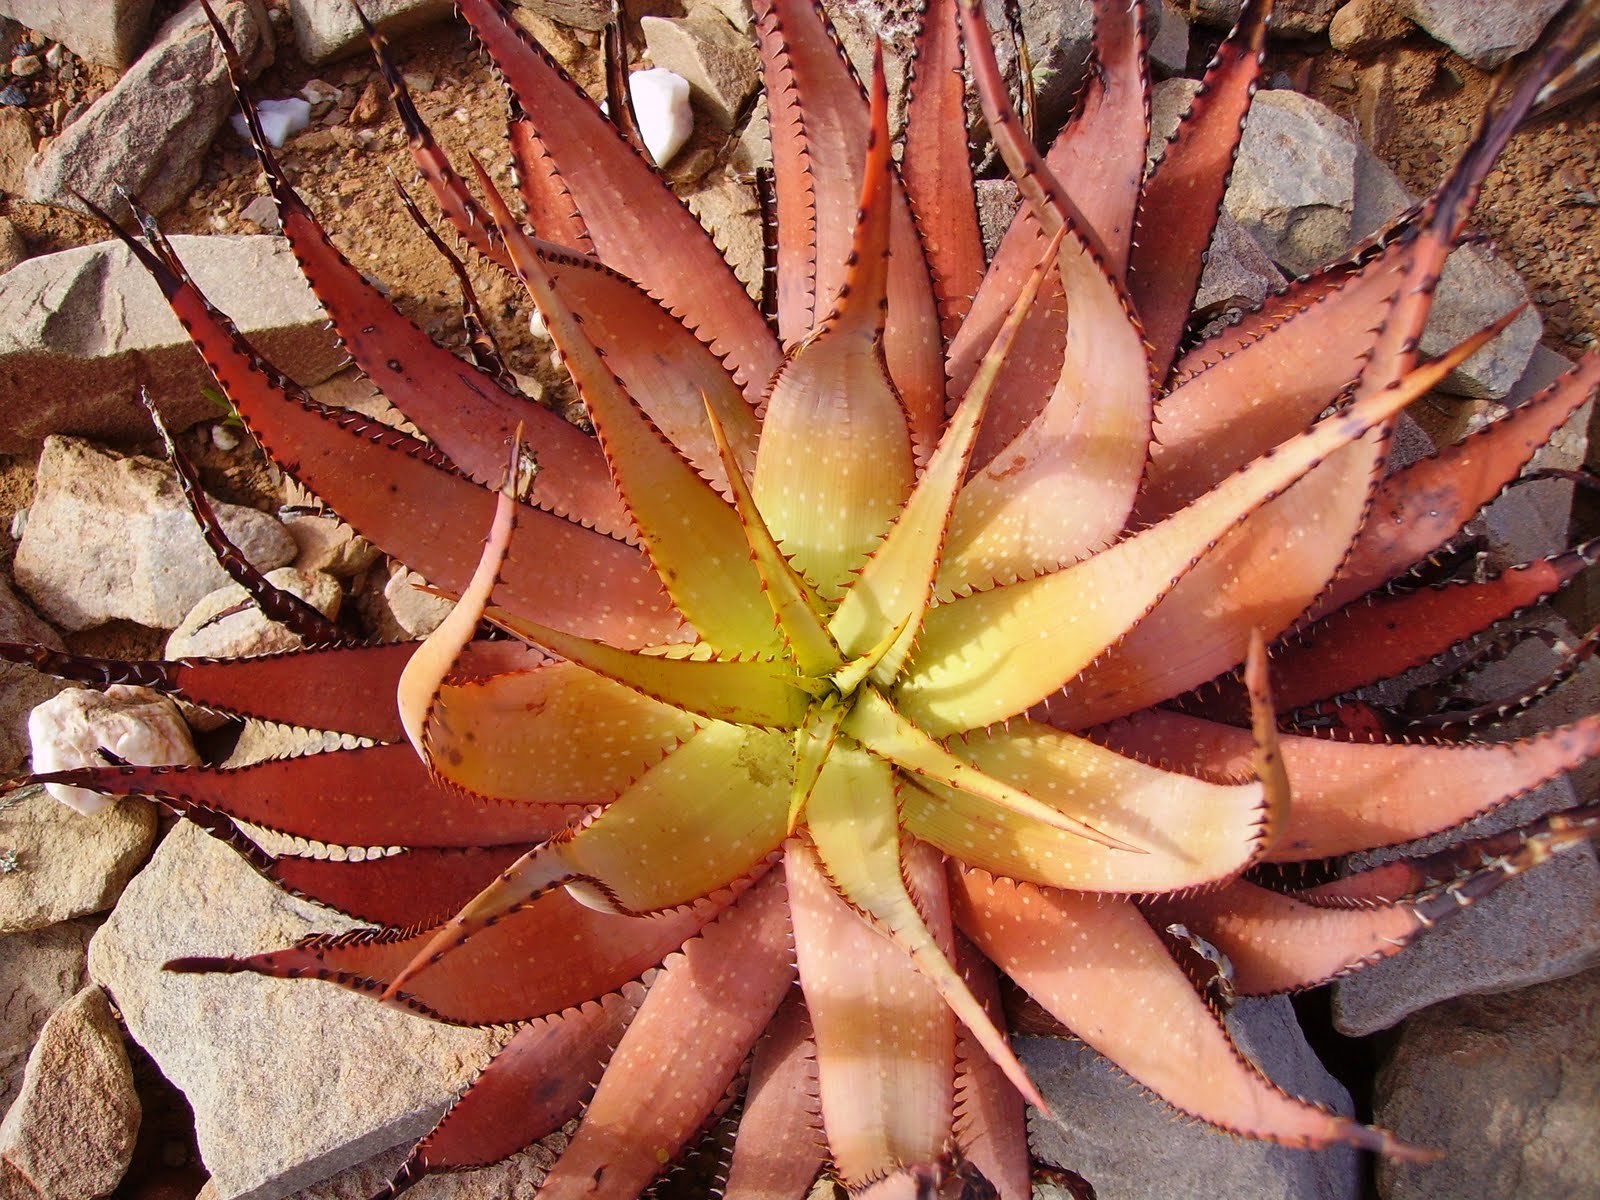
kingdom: Plantae
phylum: Tracheophyta
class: Liliopsida
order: Asparagales
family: Asphodelaceae
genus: Aloe
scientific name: Aloe microstigma
